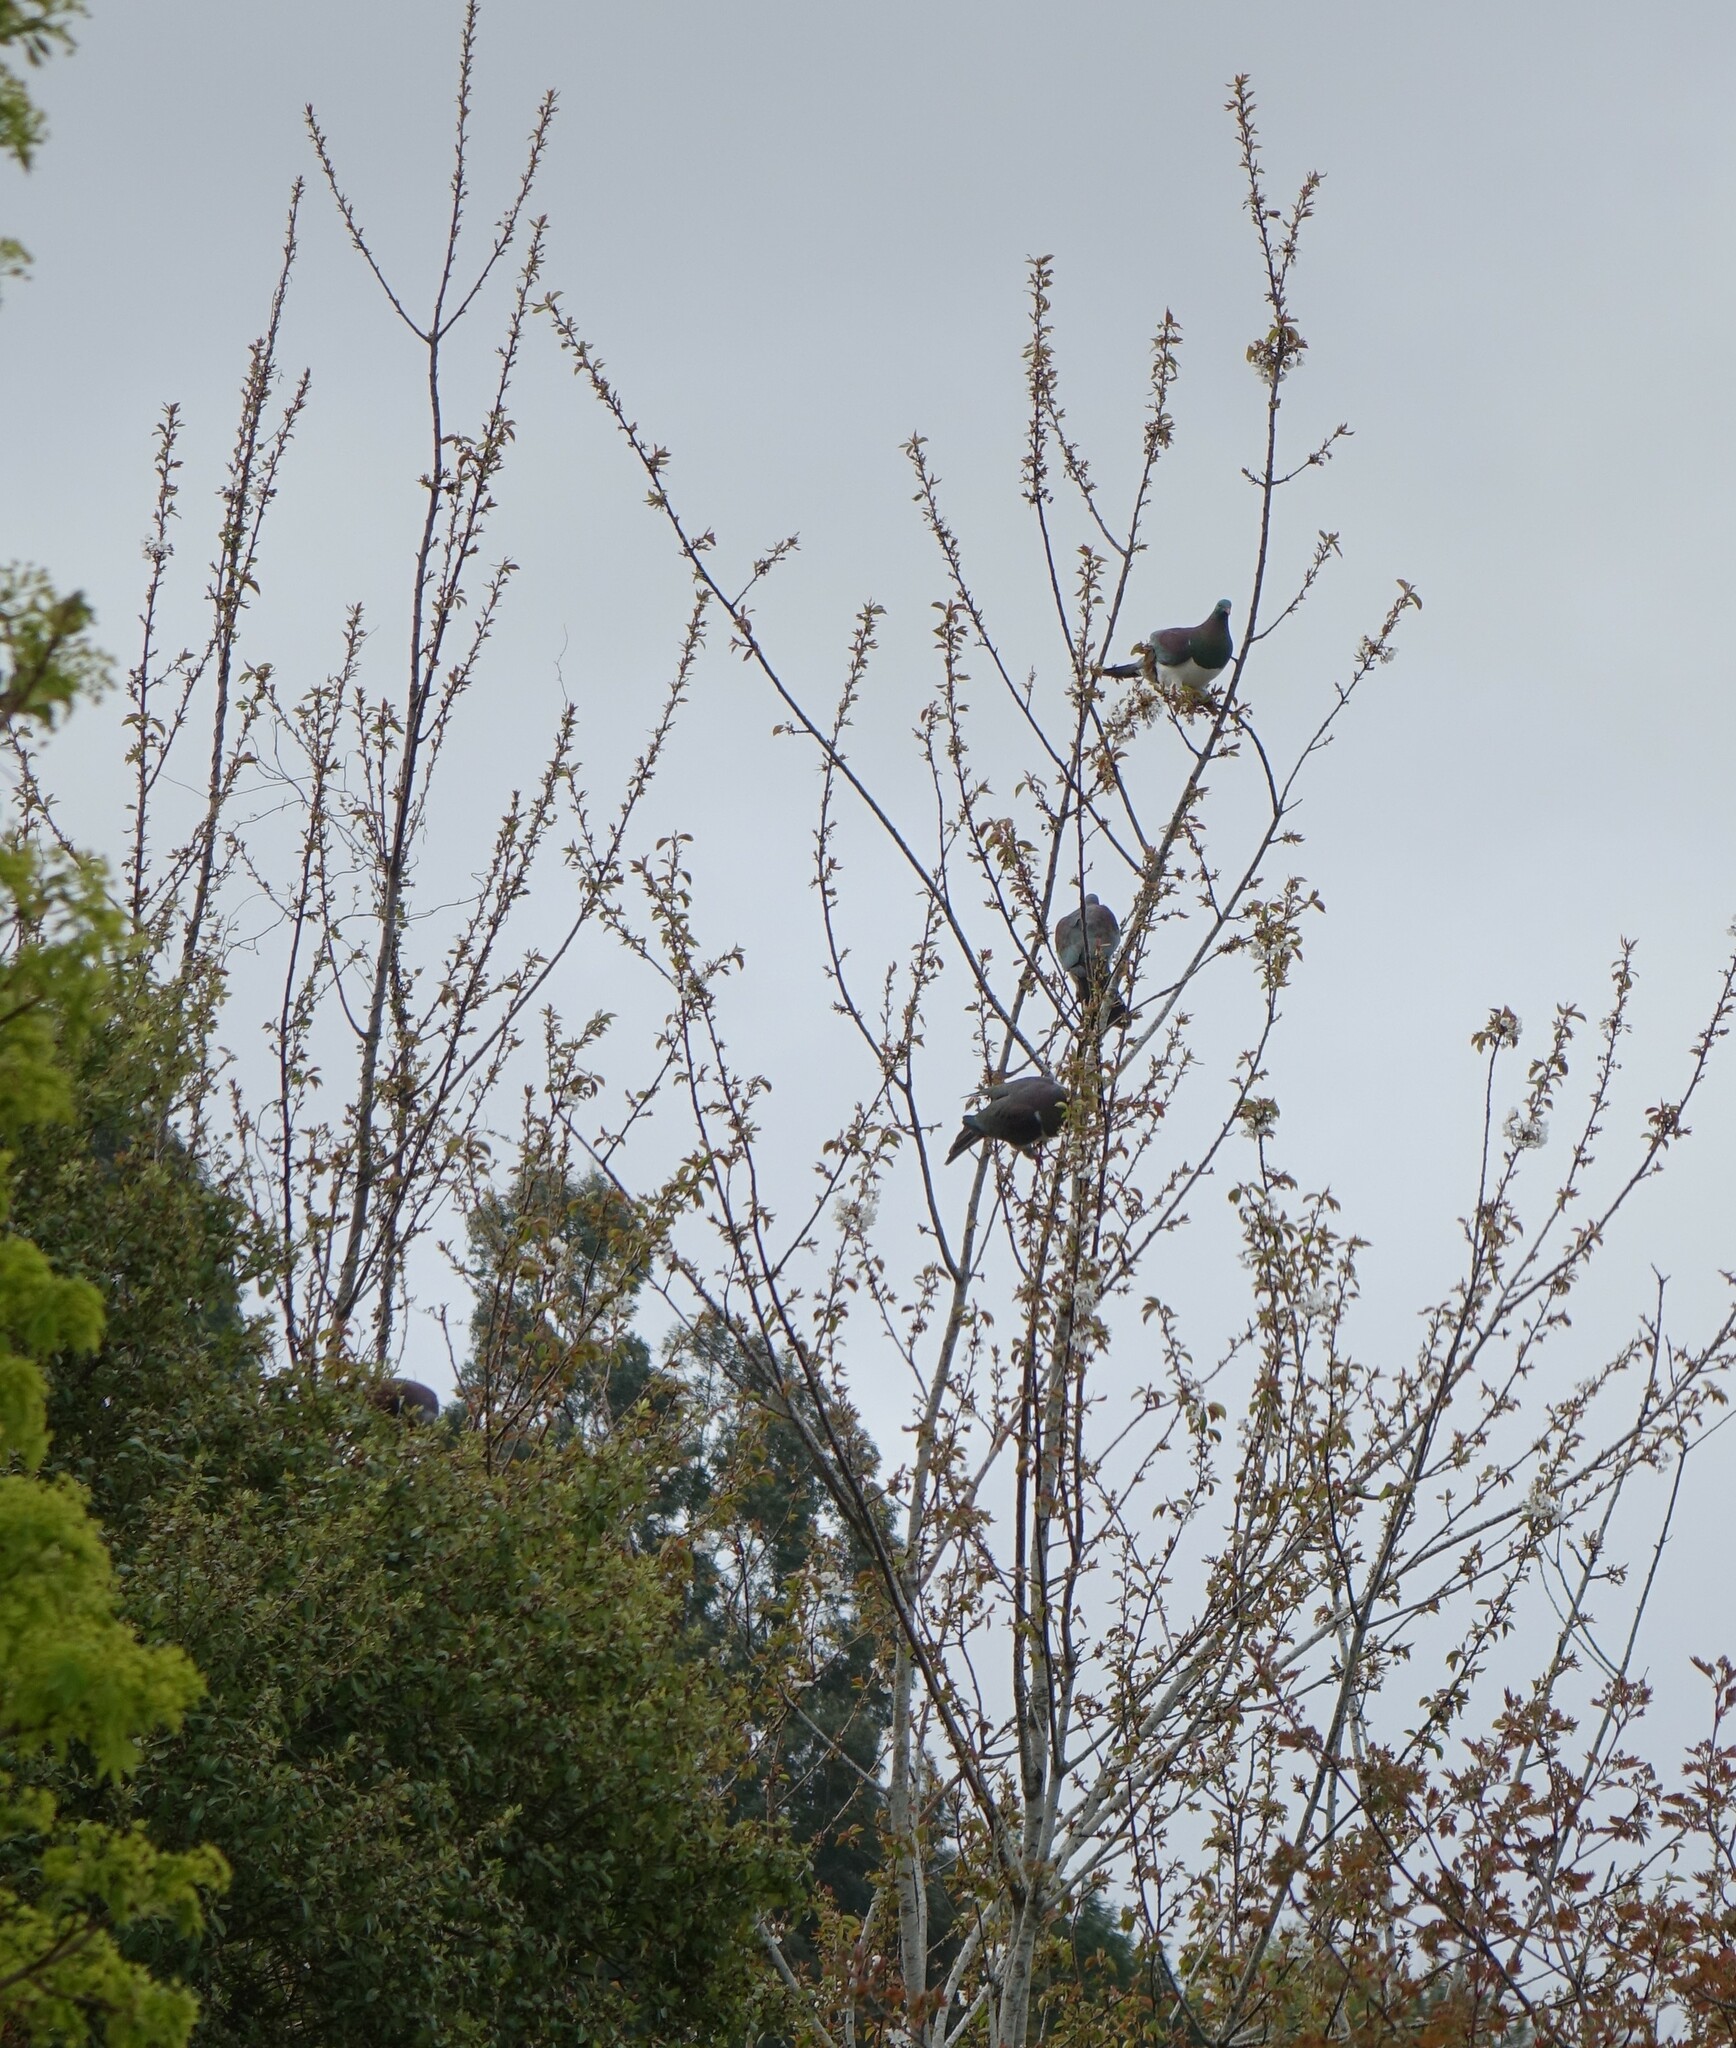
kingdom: Animalia
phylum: Chordata
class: Aves
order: Columbiformes
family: Columbidae
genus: Hemiphaga
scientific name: Hemiphaga novaeseelandiae
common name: New zealand pigeon
